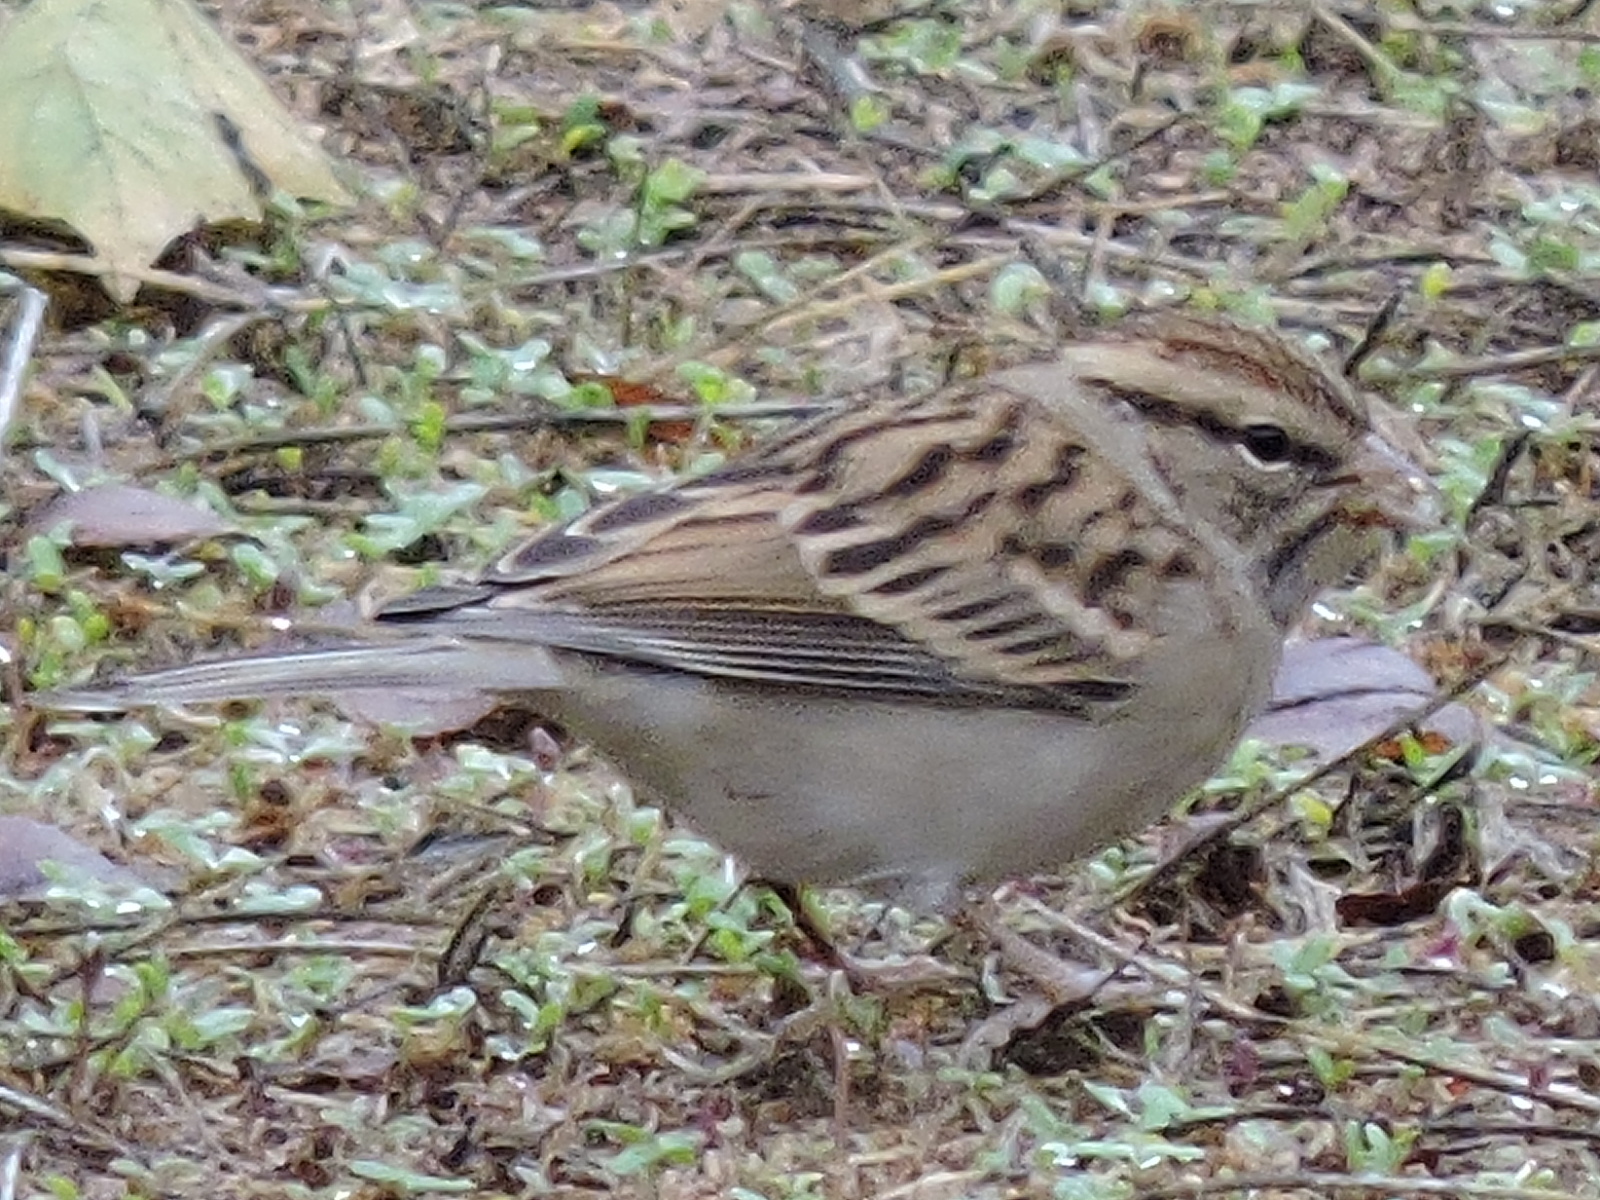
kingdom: Animalia
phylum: Chordata
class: Aves
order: Passeriformes
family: Passerellidae
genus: Spizella
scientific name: Spizella passerina
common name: Chipping sparrow
